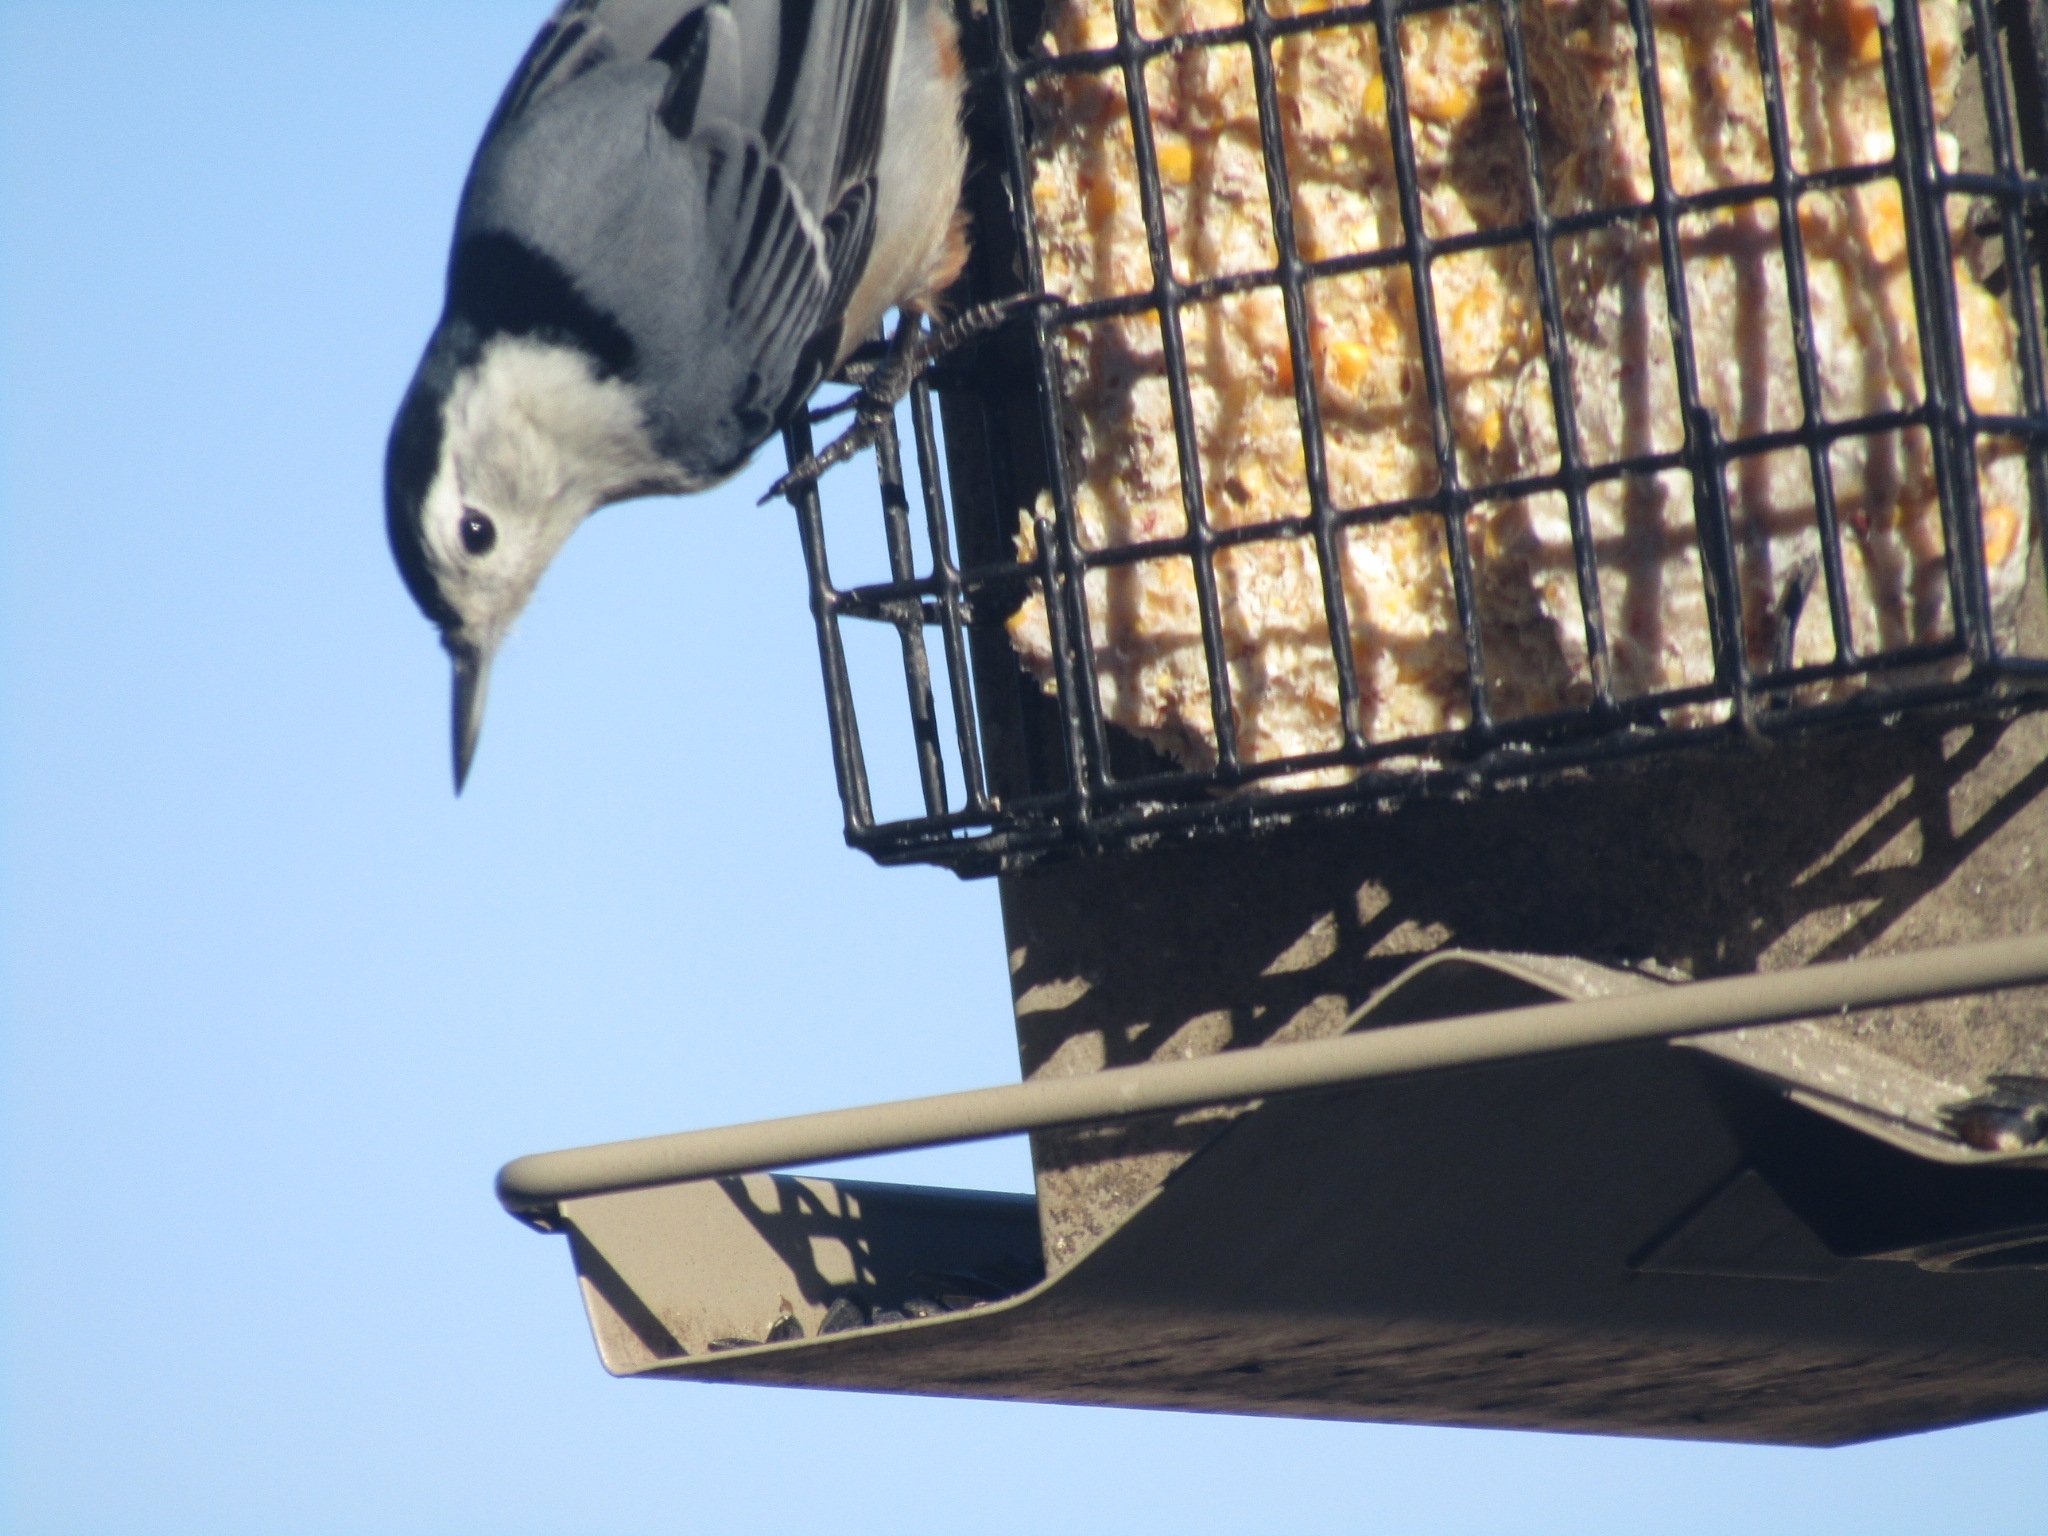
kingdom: Animalia
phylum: Chordata
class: Aves
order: Passeriformes
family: Sittidae
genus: Sitta
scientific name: Sitta carolinensis
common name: White-breasted nuthatch
